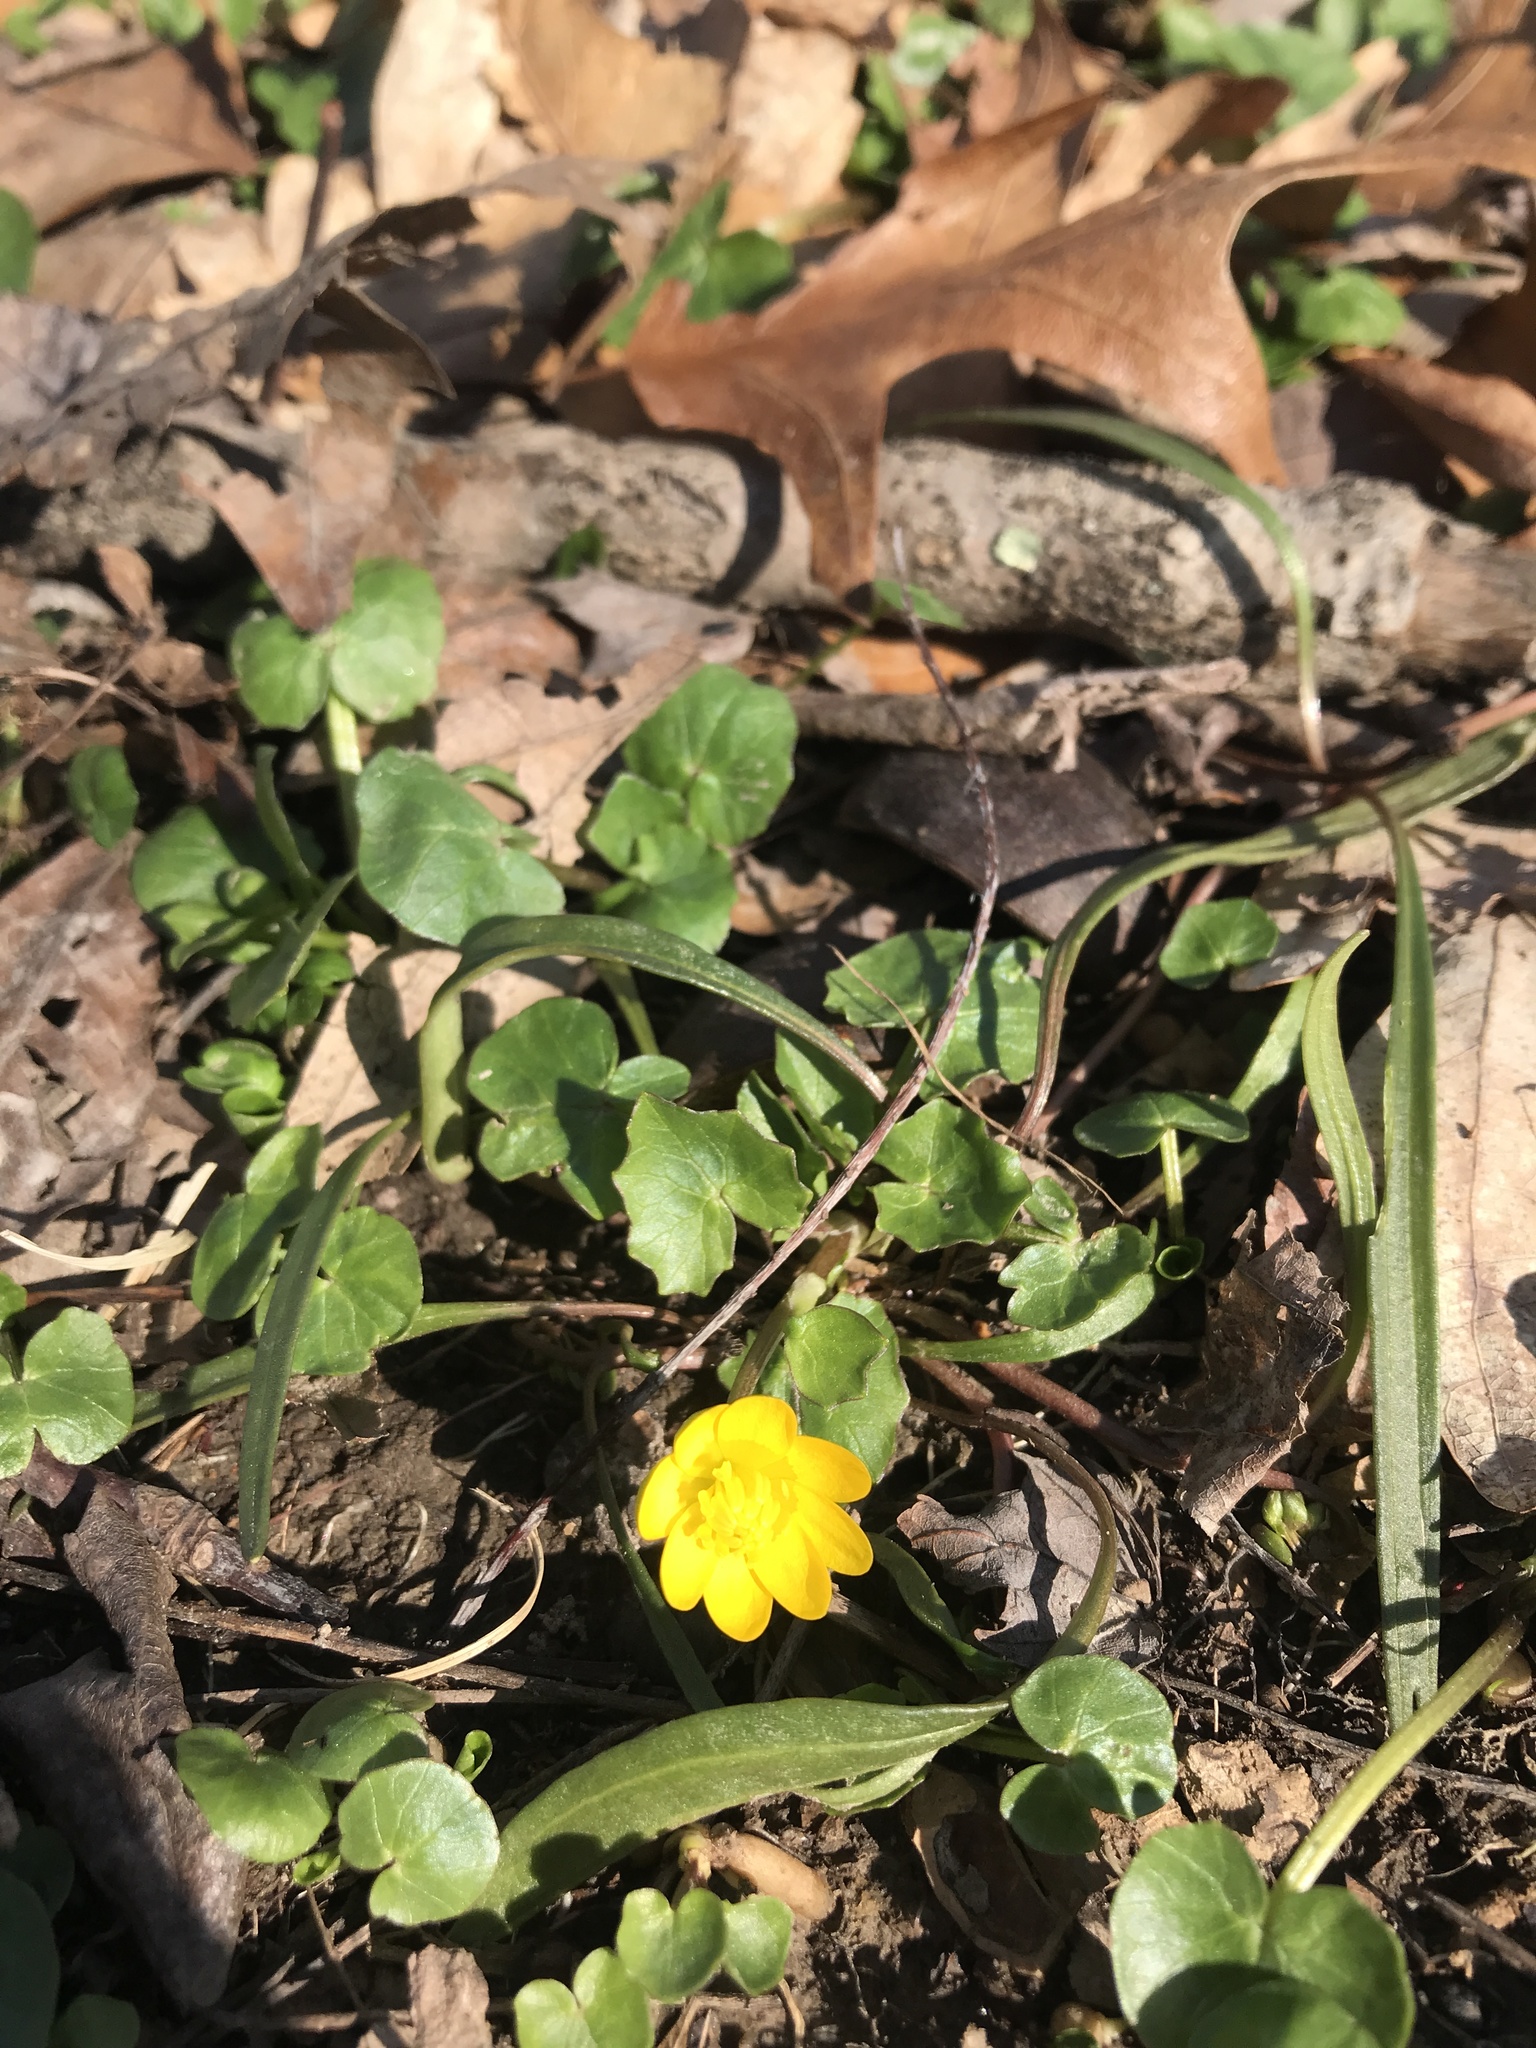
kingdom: Plantae
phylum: Tracheophyta
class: Magnoliopsida
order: Ranunculales
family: Ranunculaceae
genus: Ficaria
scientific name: Ficaria verna
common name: Lesser celandine
